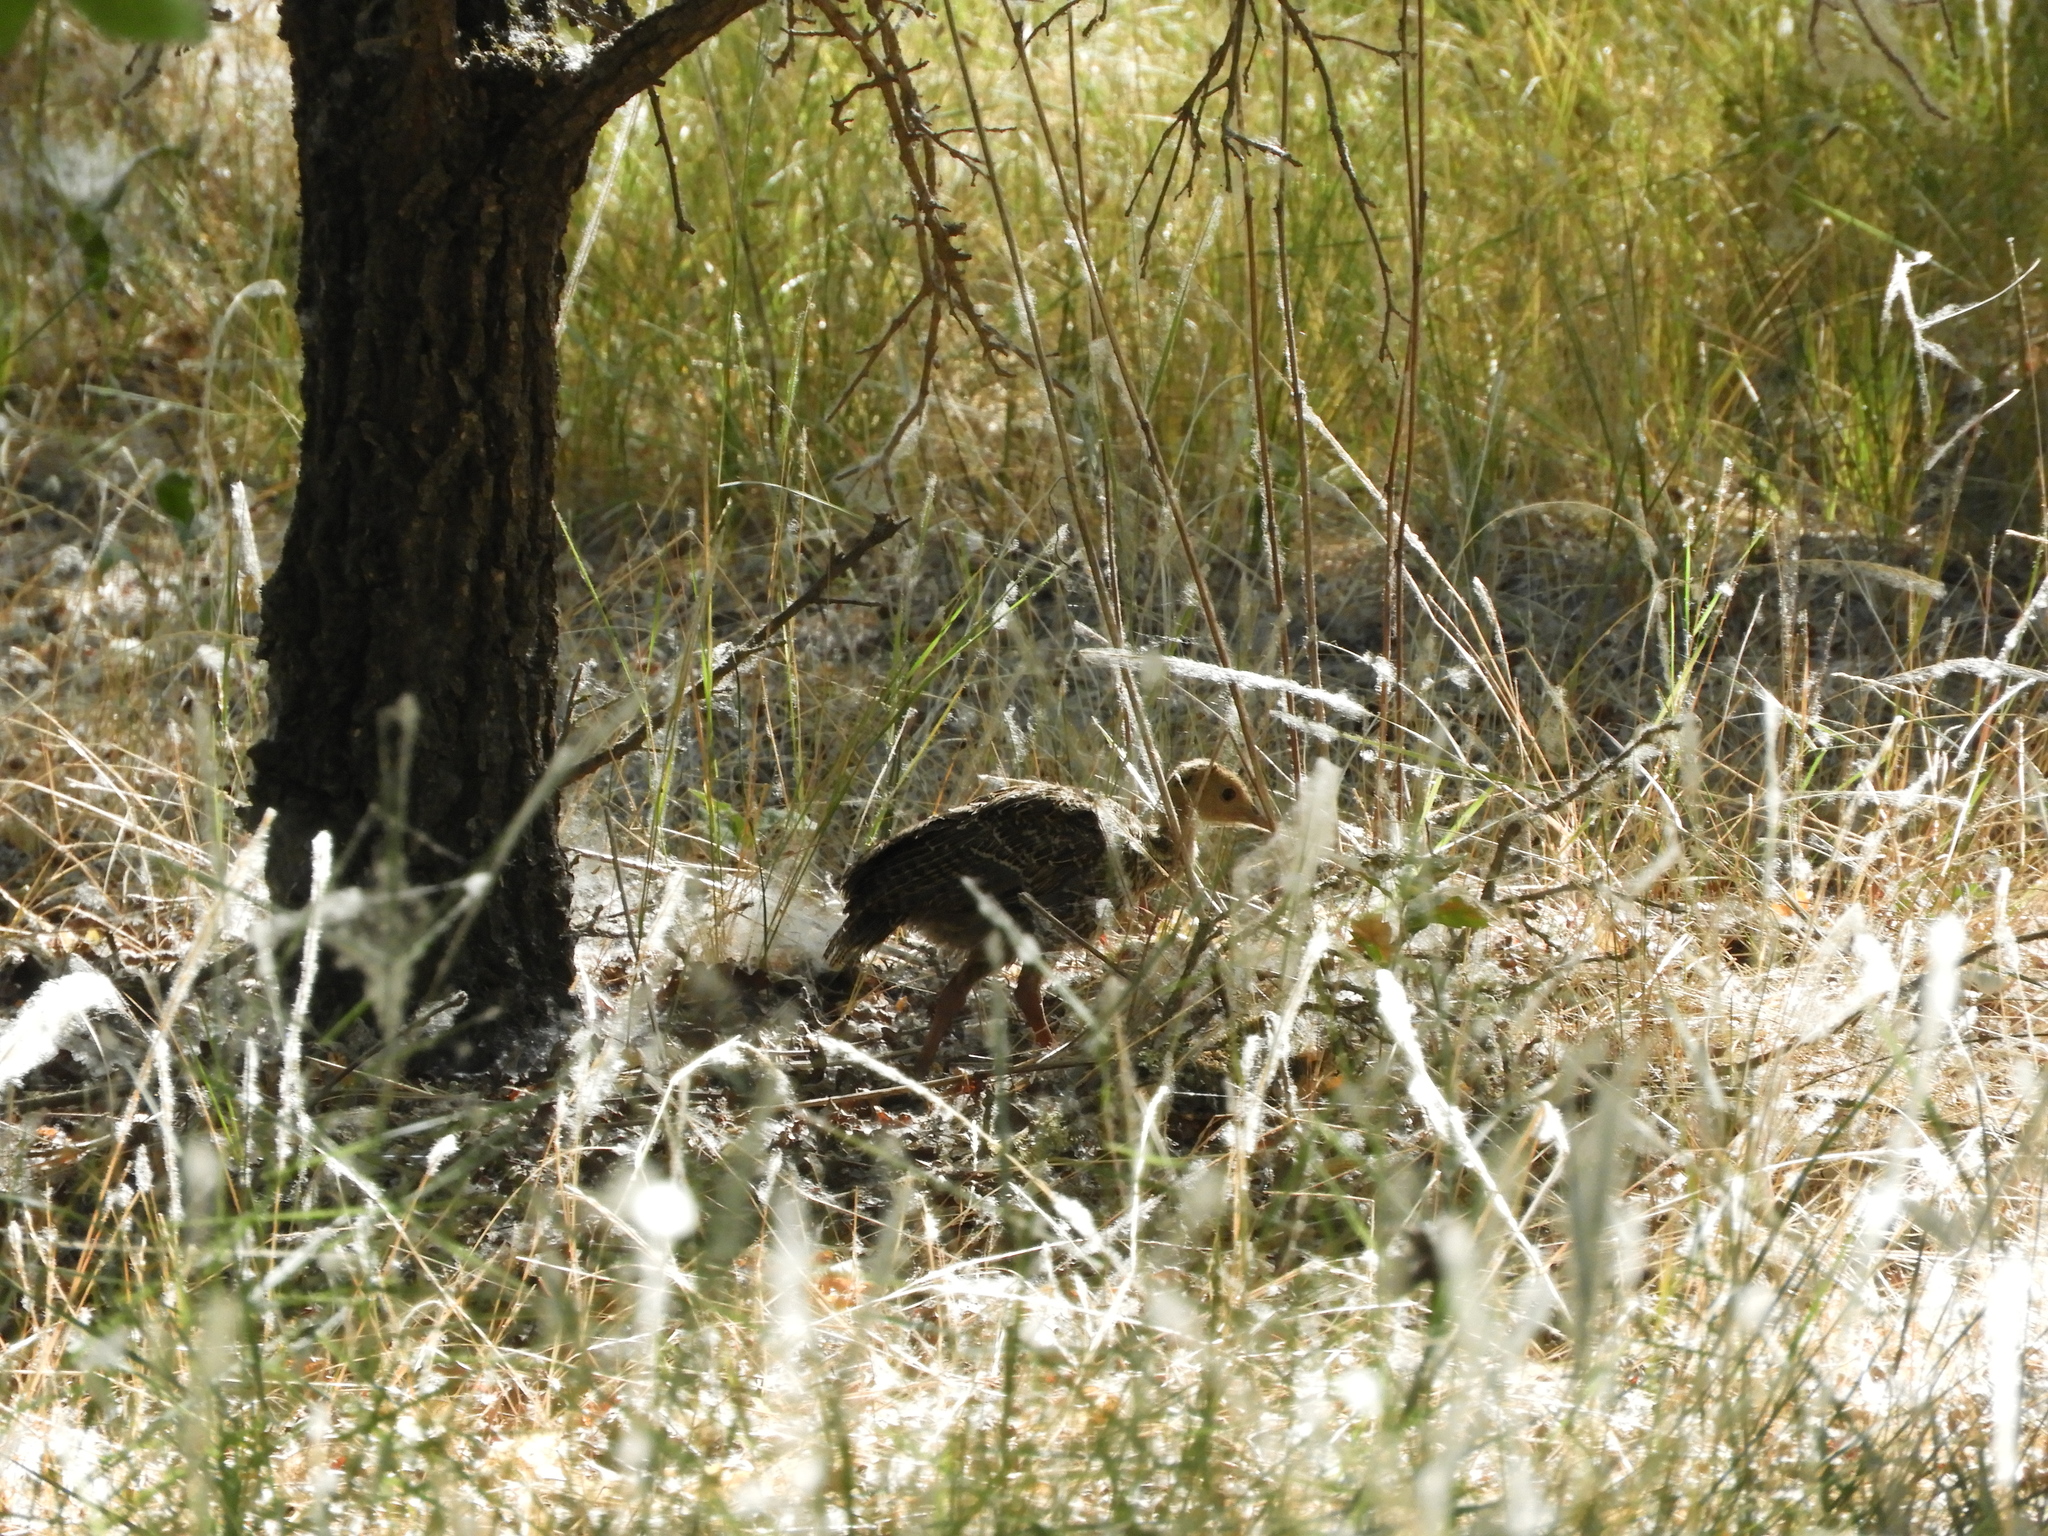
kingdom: Animalia
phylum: Chordata
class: Aves
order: Galliformes
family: Phasianidae
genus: Meleagris
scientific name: Meleagris gallopavo
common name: Wild turkey
